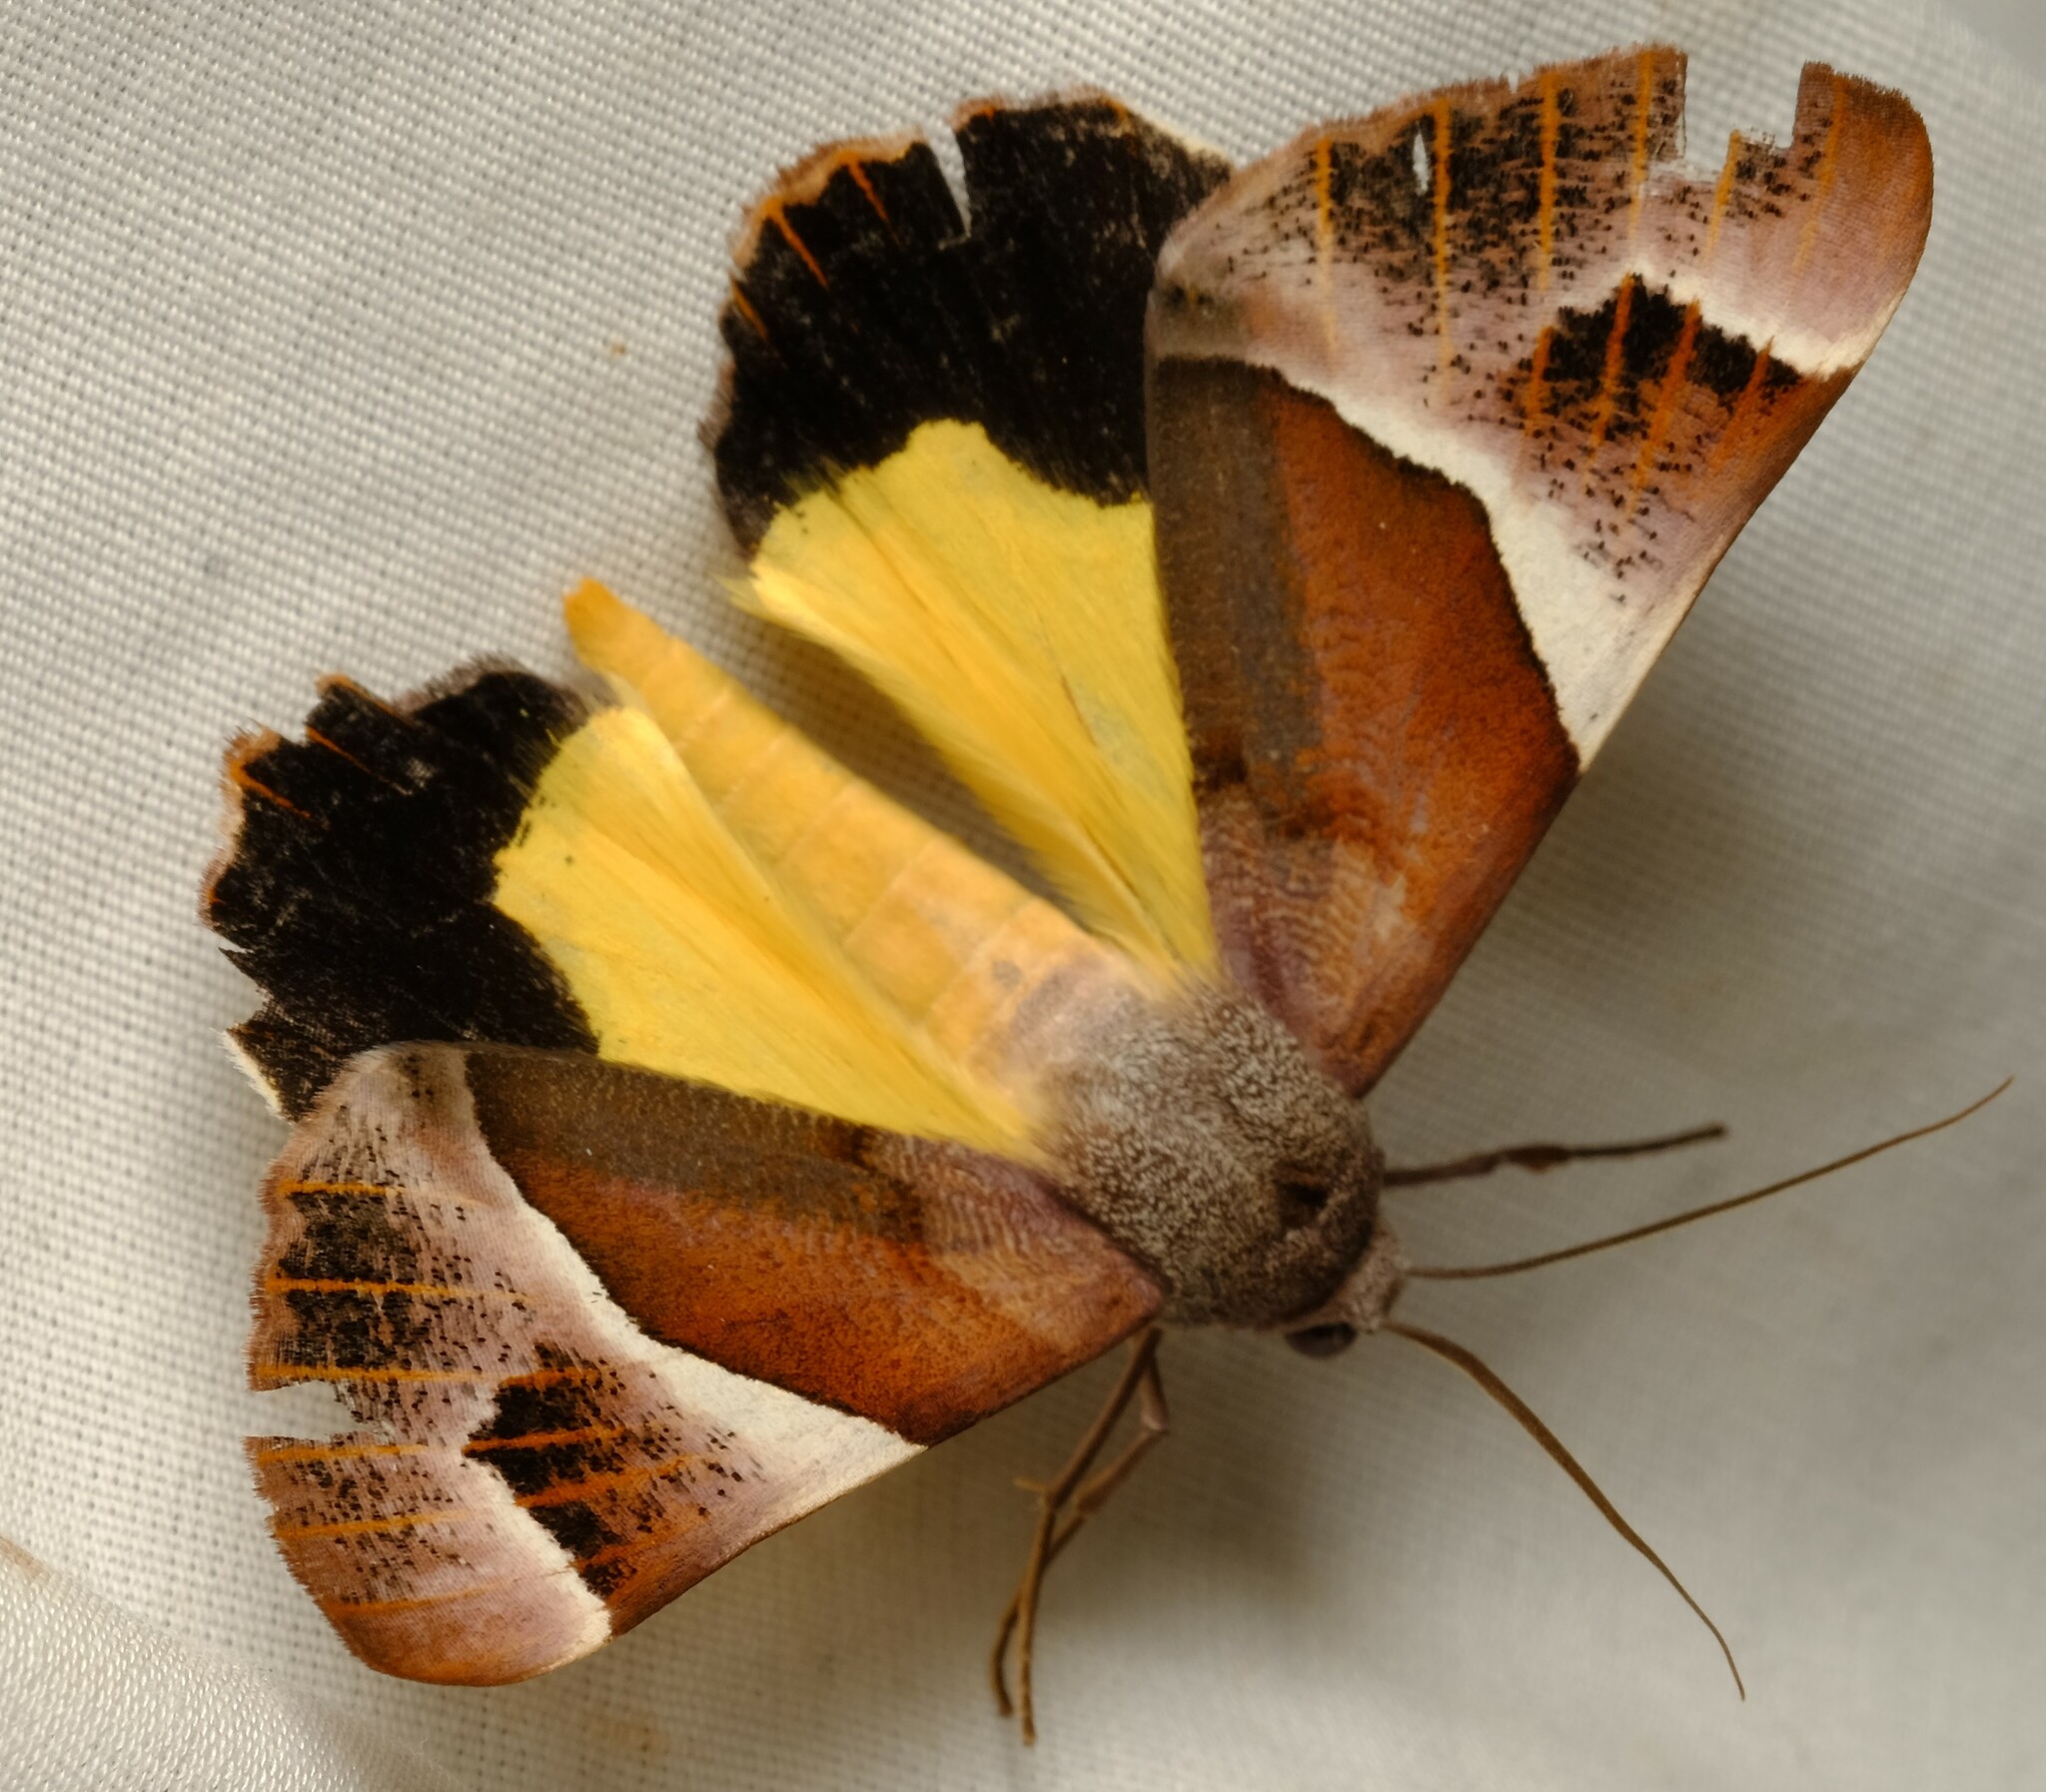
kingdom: Animalia
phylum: Arthropoda
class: Insecta
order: Lepidoptera
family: Geometridae
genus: Niceteria
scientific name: Niceteria macrocosma
